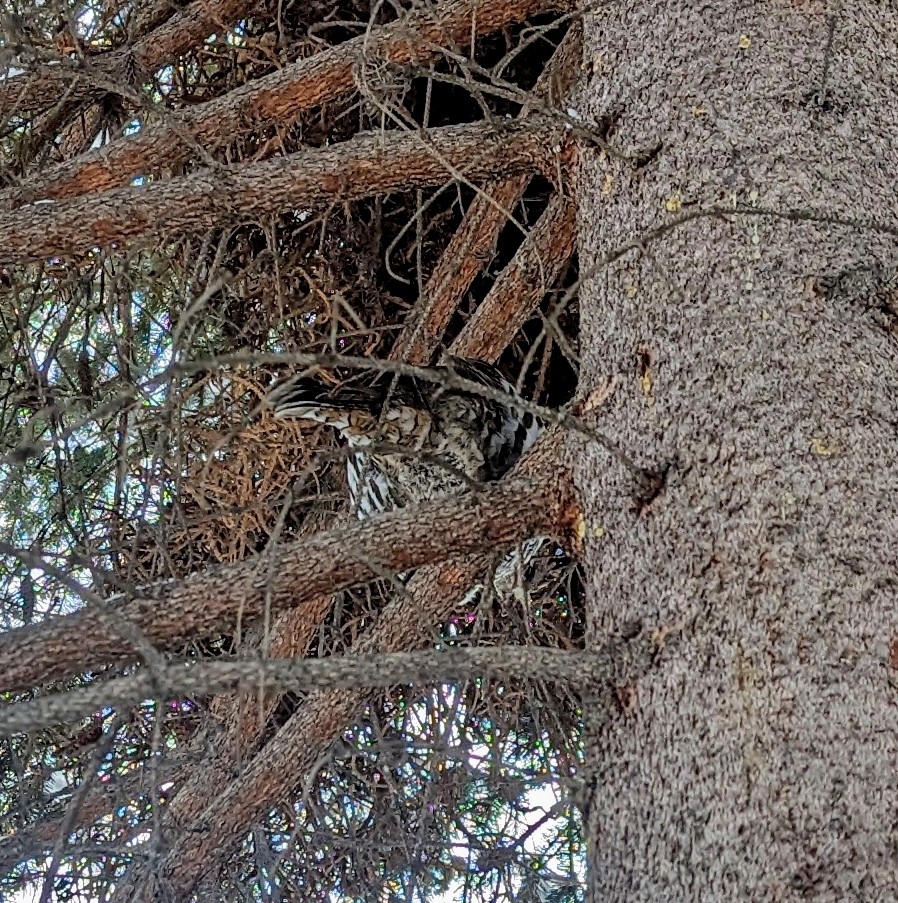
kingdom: Animalia
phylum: Chordata
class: Aves
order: Galliformes
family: Phasianidae
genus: Bonasa
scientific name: Bonasa umbellus
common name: Ruffed grouse
